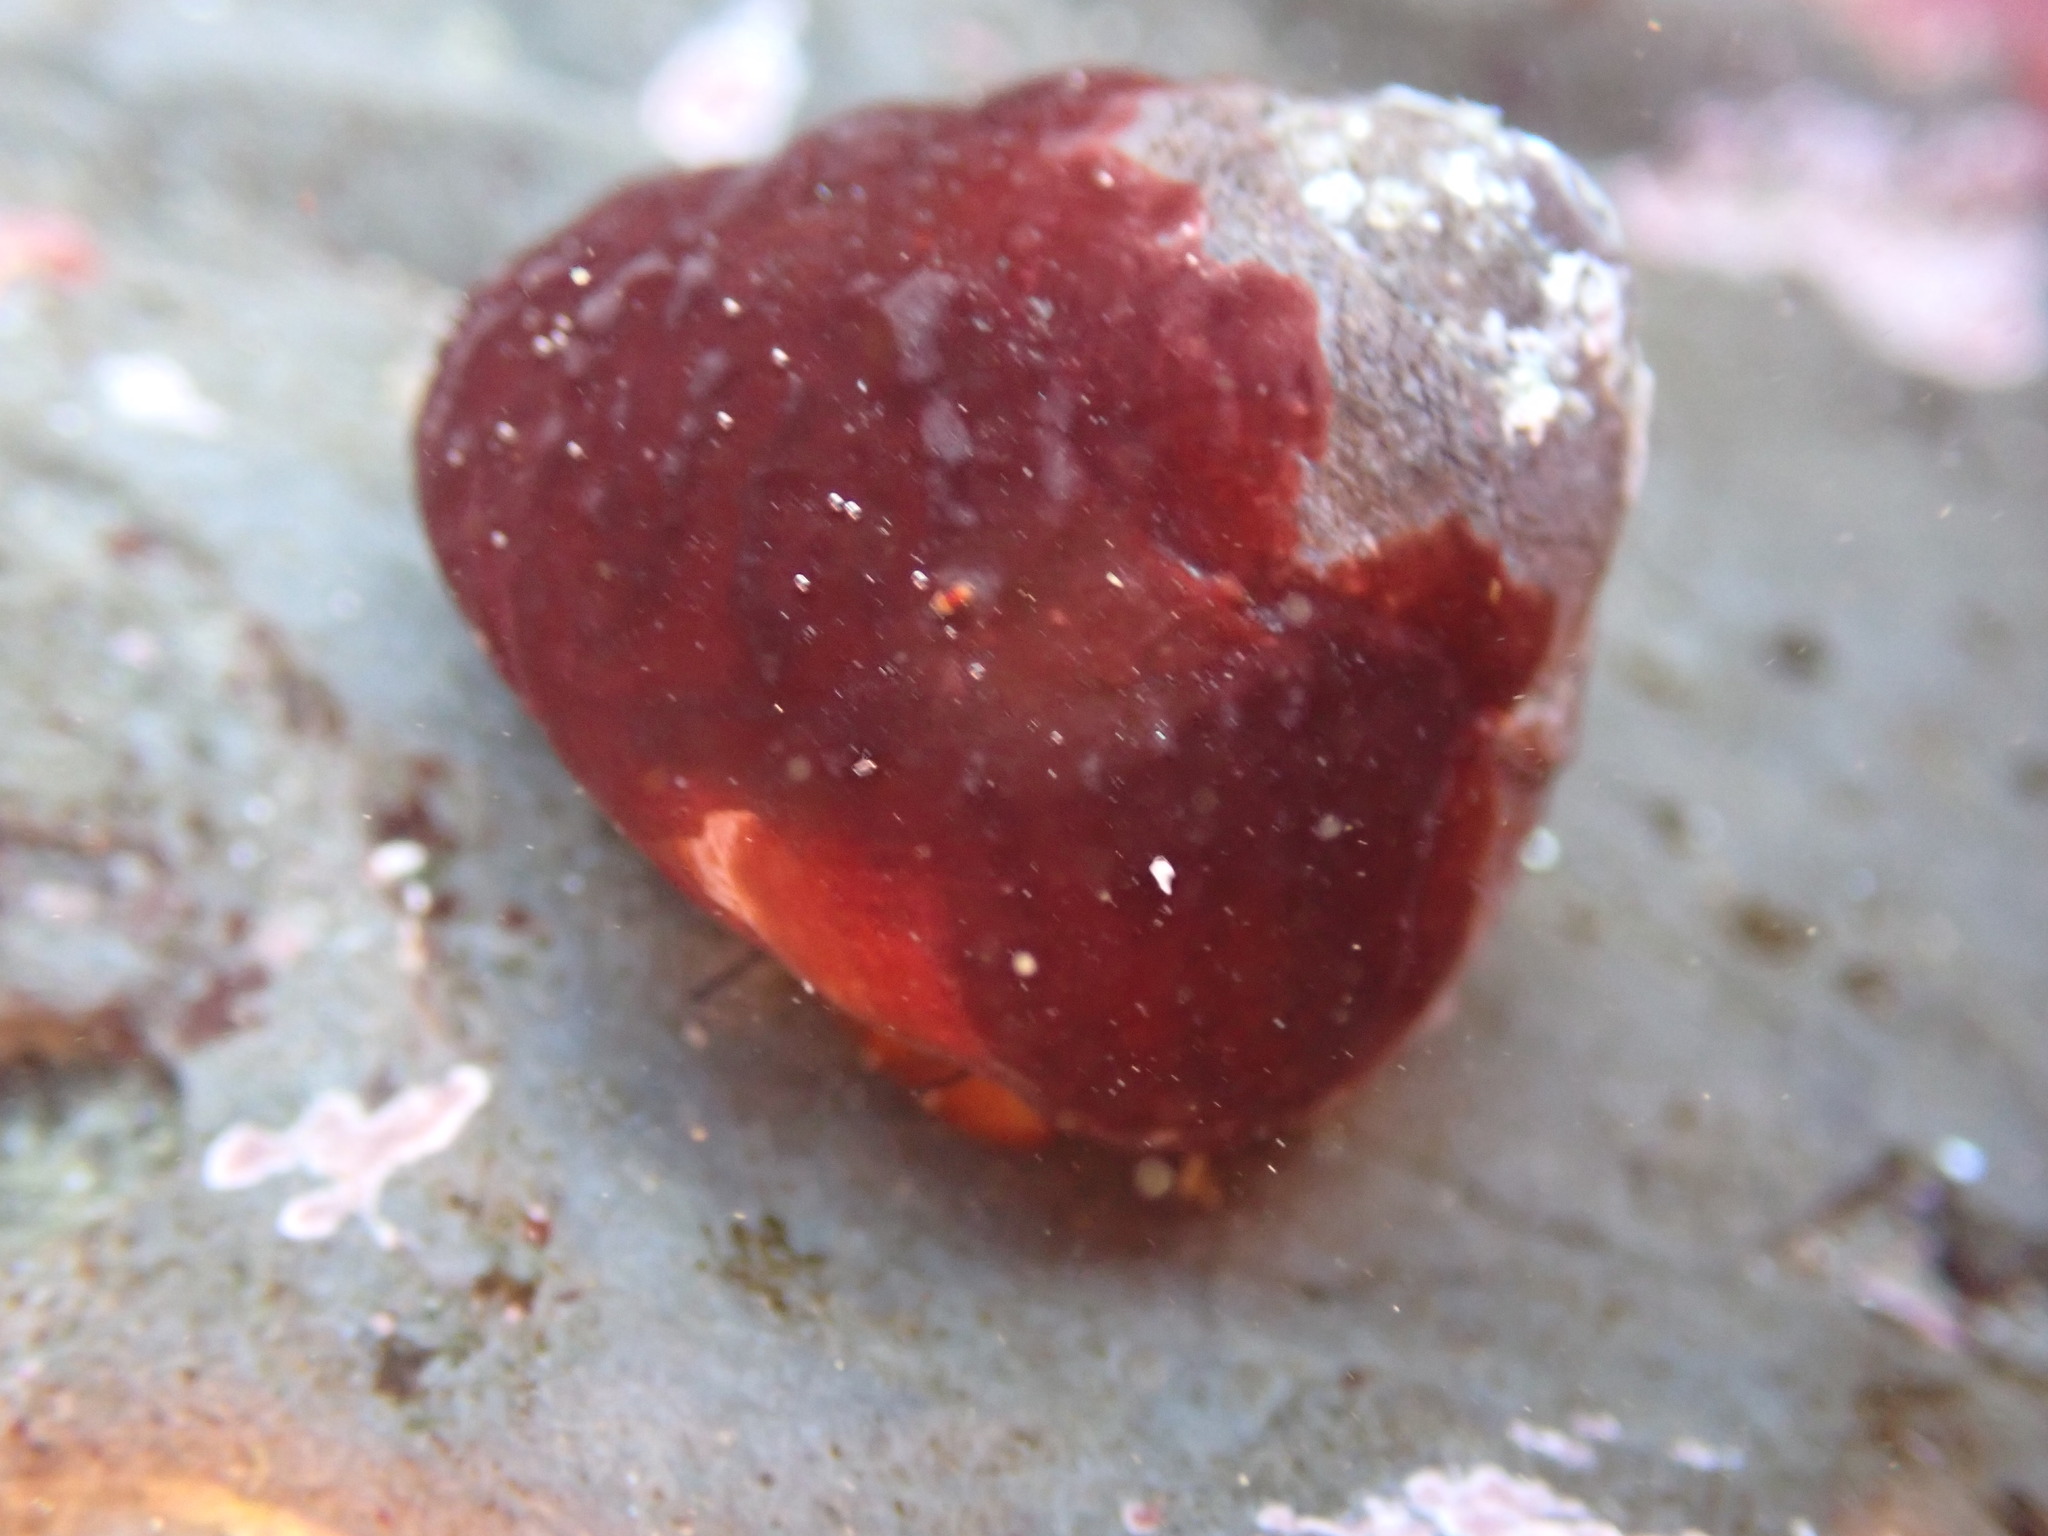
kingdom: Animalia
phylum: Mollusca
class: Gastropoda
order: Trochida
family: Tegulidae
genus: Tegula
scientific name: Tegula brunnea
